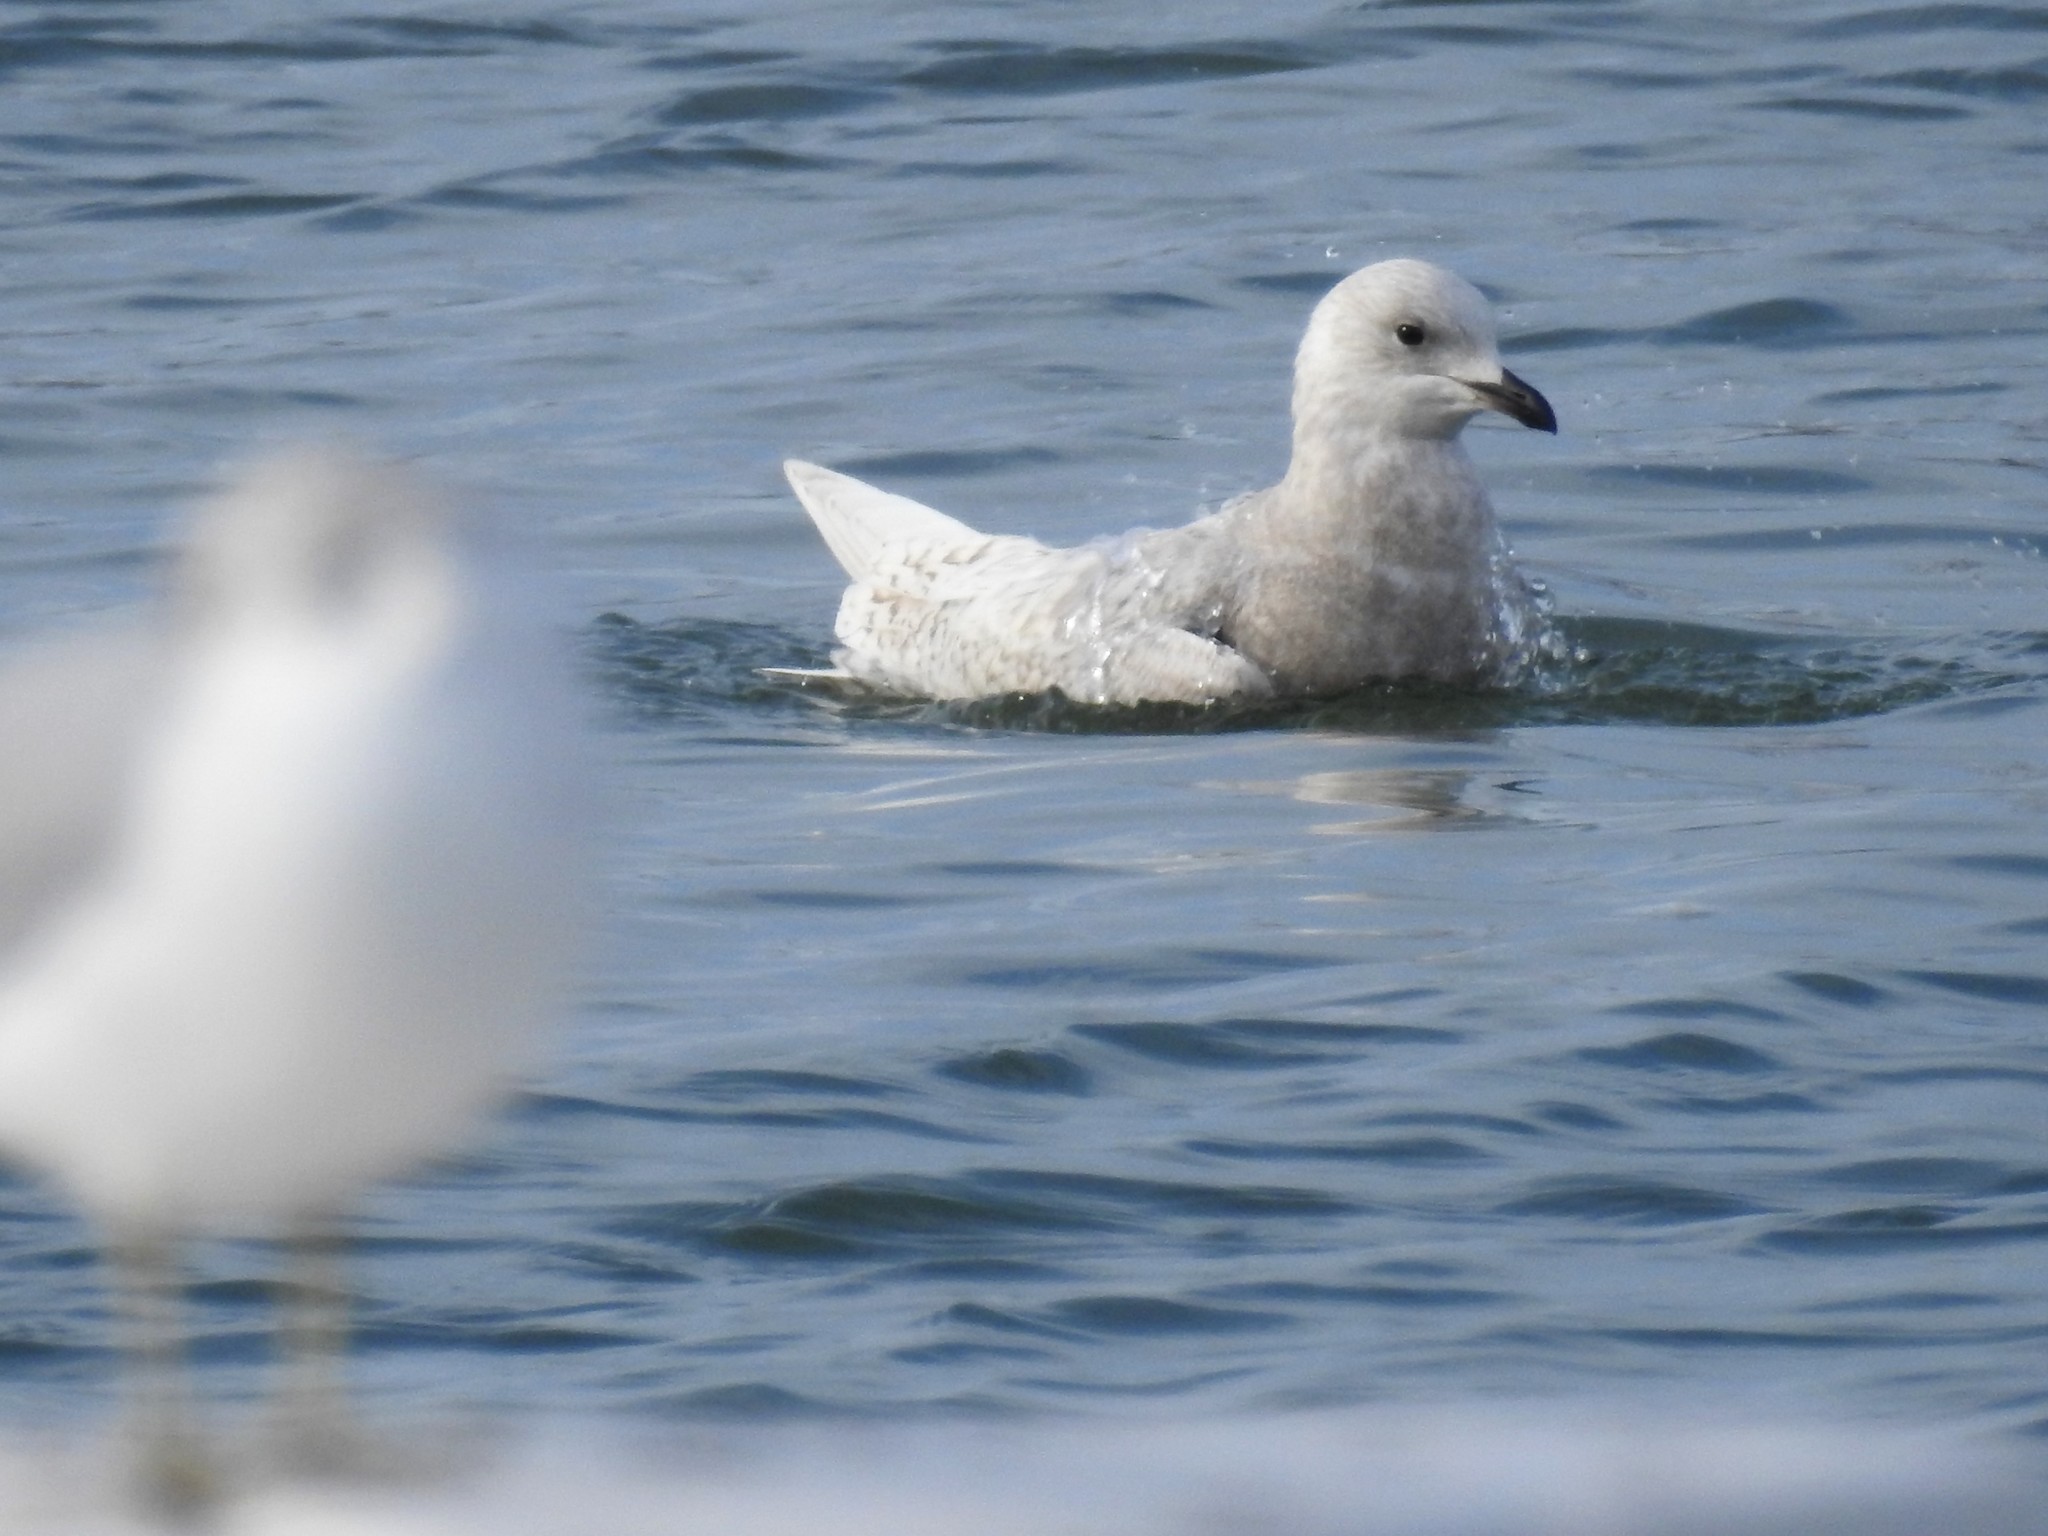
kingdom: Animalia
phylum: Chordata
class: Aves
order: Charadriiformes
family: Laridae
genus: Larus
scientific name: Larus glaucoides
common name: Iceland gull
